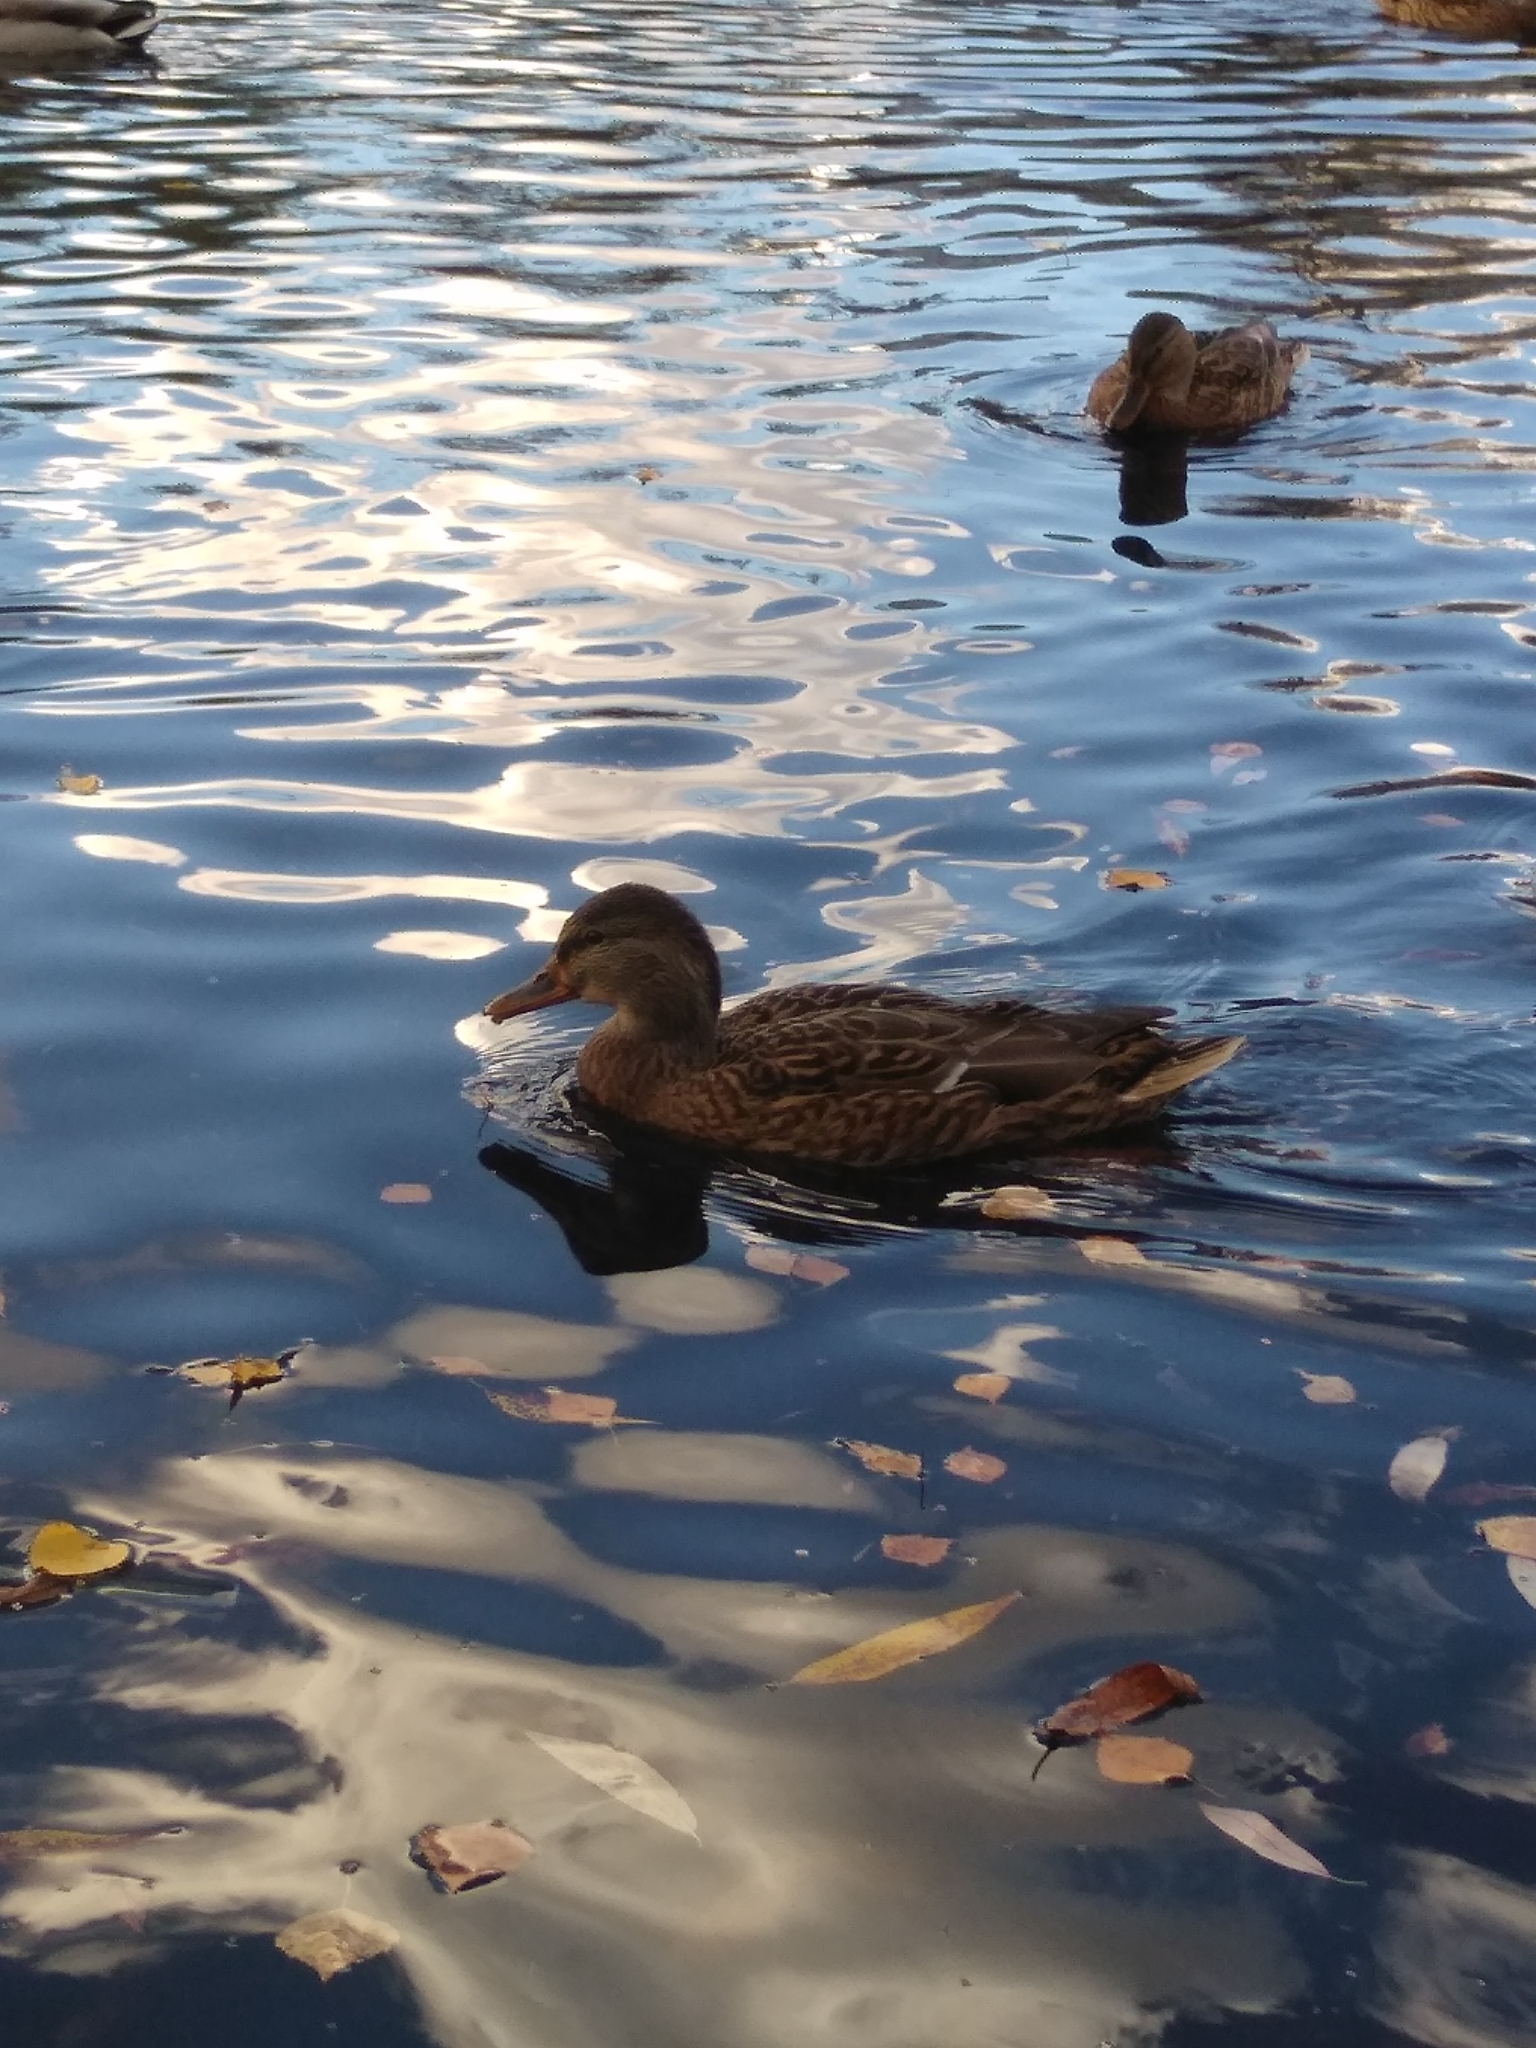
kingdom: Animalia
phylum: Chordata
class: Aves
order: Anseriformes
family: Anatidae
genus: Anas
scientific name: Anas platyrhynchos
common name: Mallard
